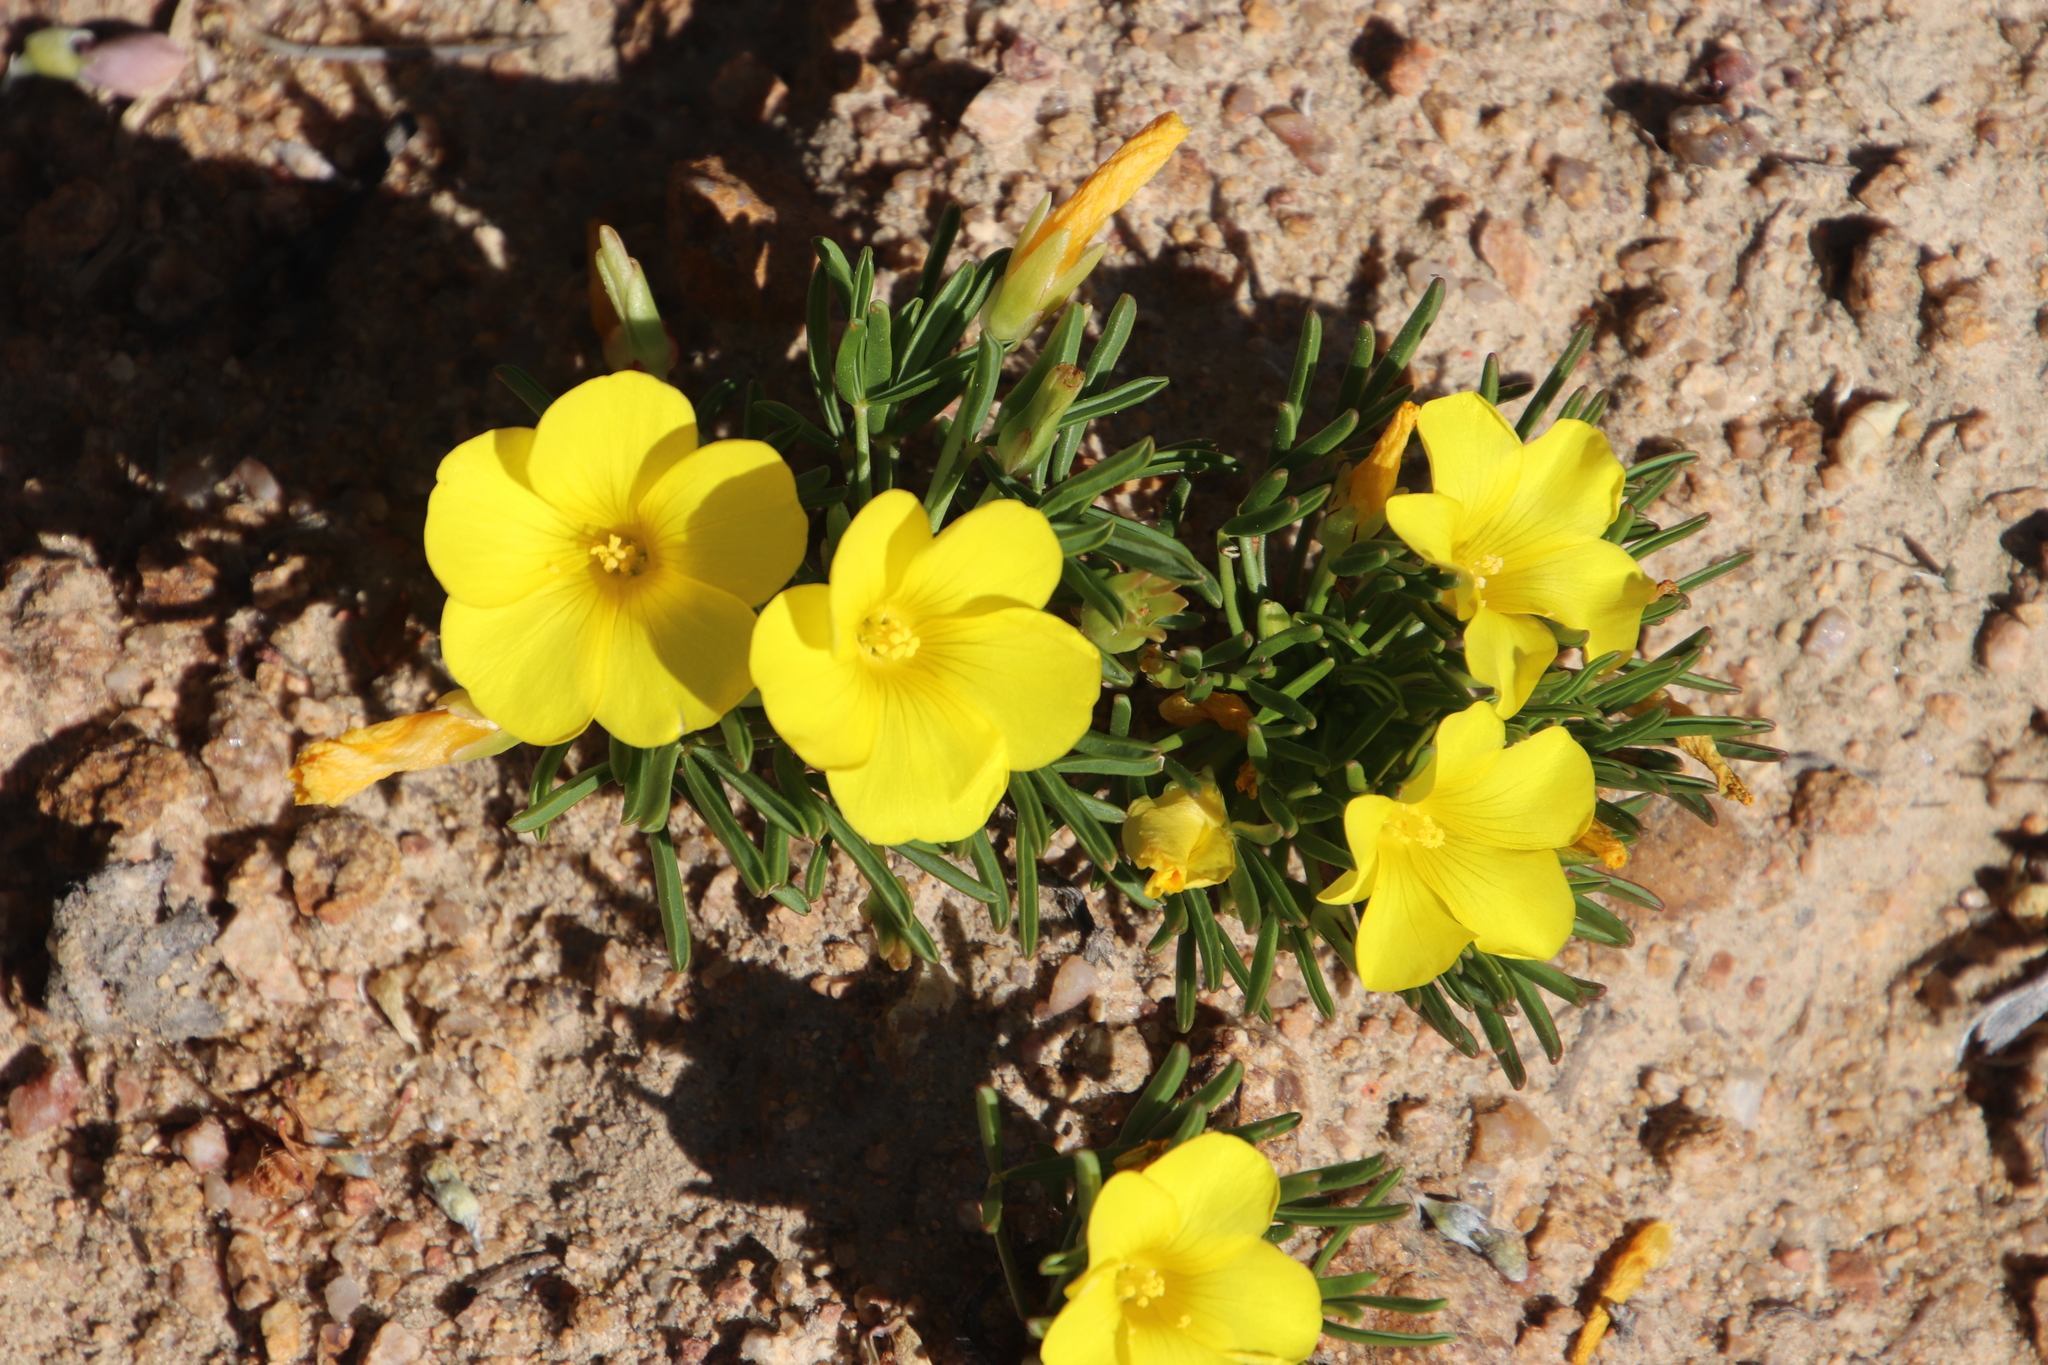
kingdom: Plantae
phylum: Tracheophyta
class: Magnoliopsida
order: Oxalidales
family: Oxalidaceae
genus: Oxalis
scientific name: Oxalis namaquana
